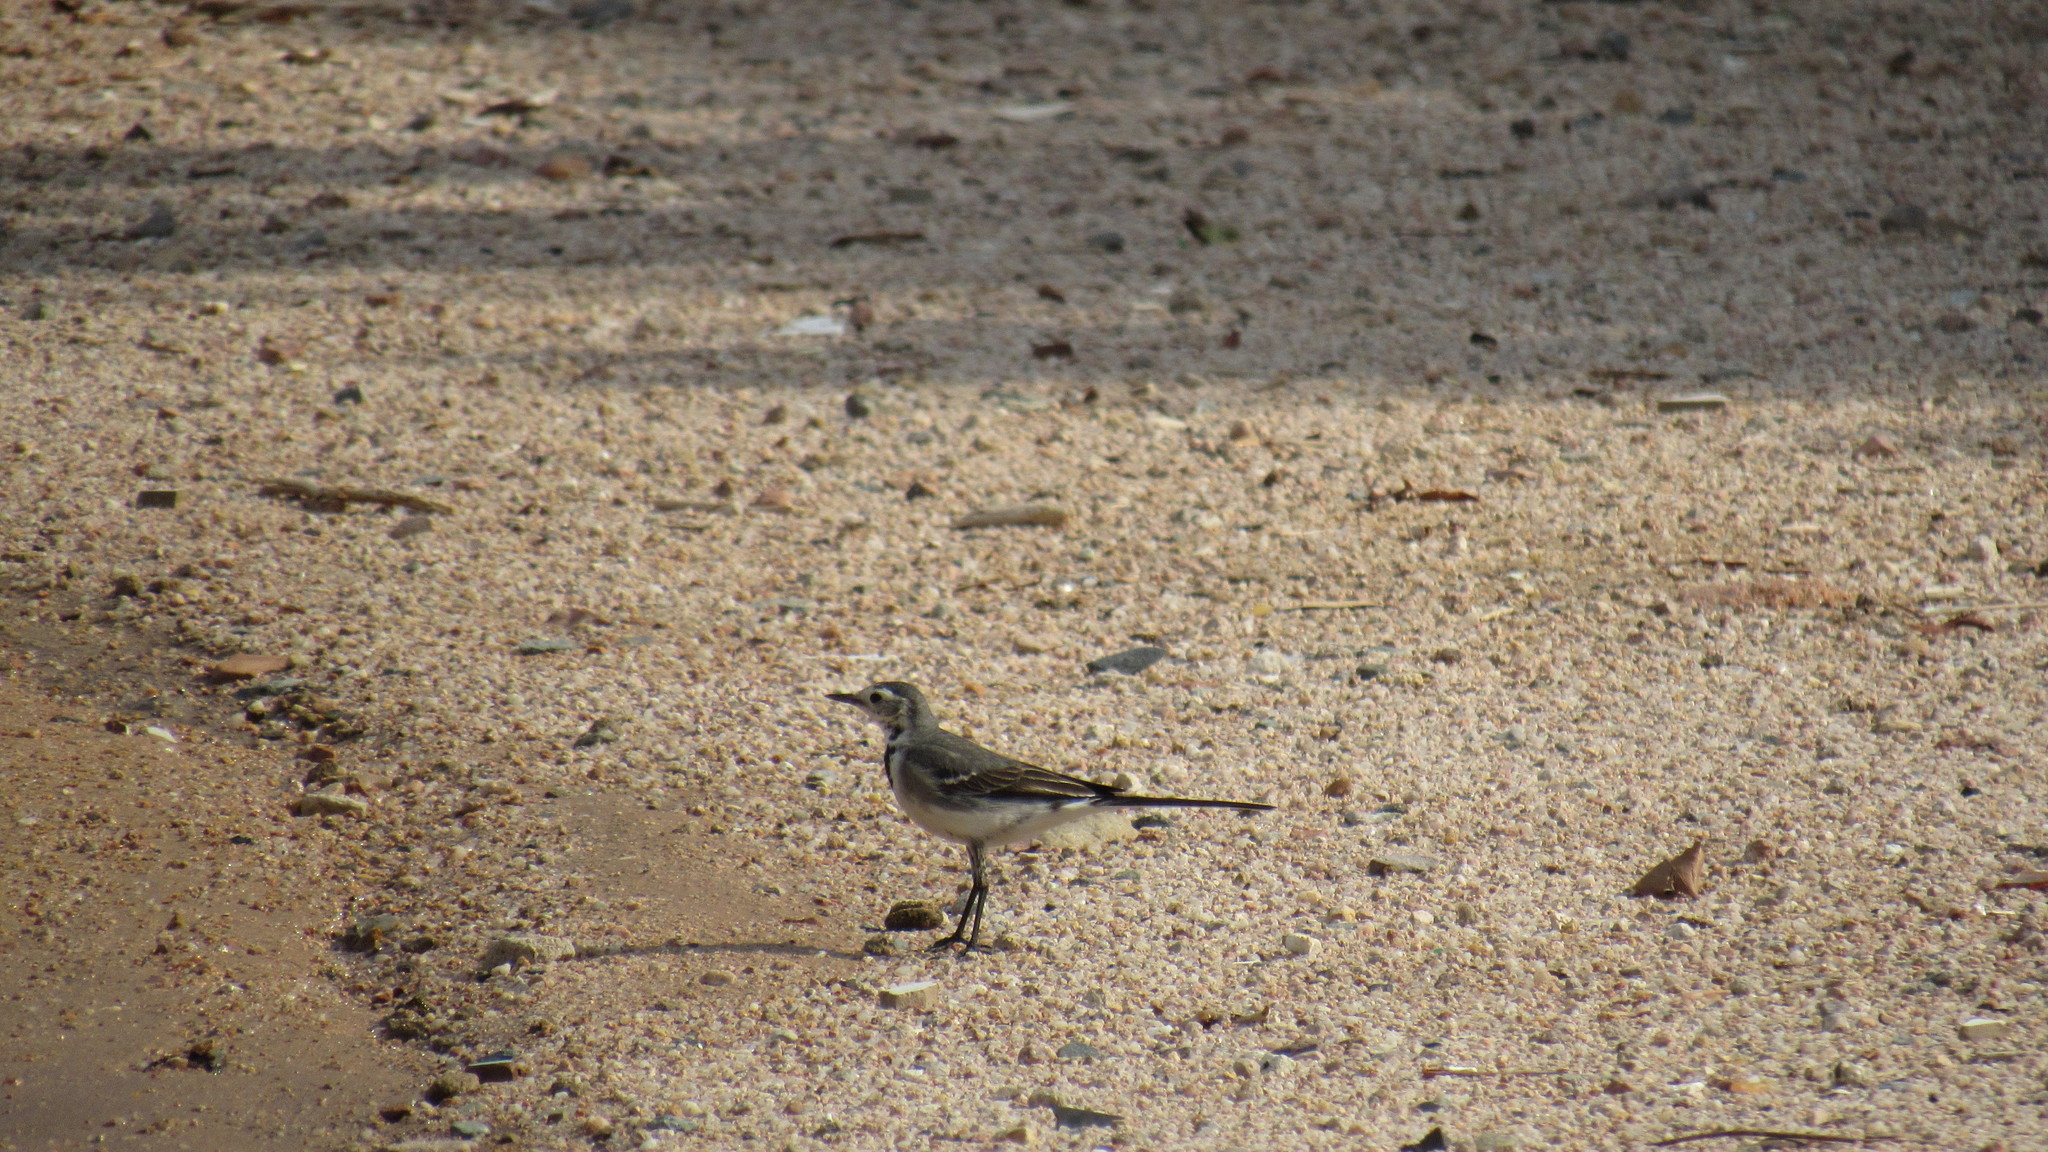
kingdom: Animalia
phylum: Chordata
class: Aves
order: Passeriformes
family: Motacillidae
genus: Motacilla
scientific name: Motacilla alba
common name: White wagtail
